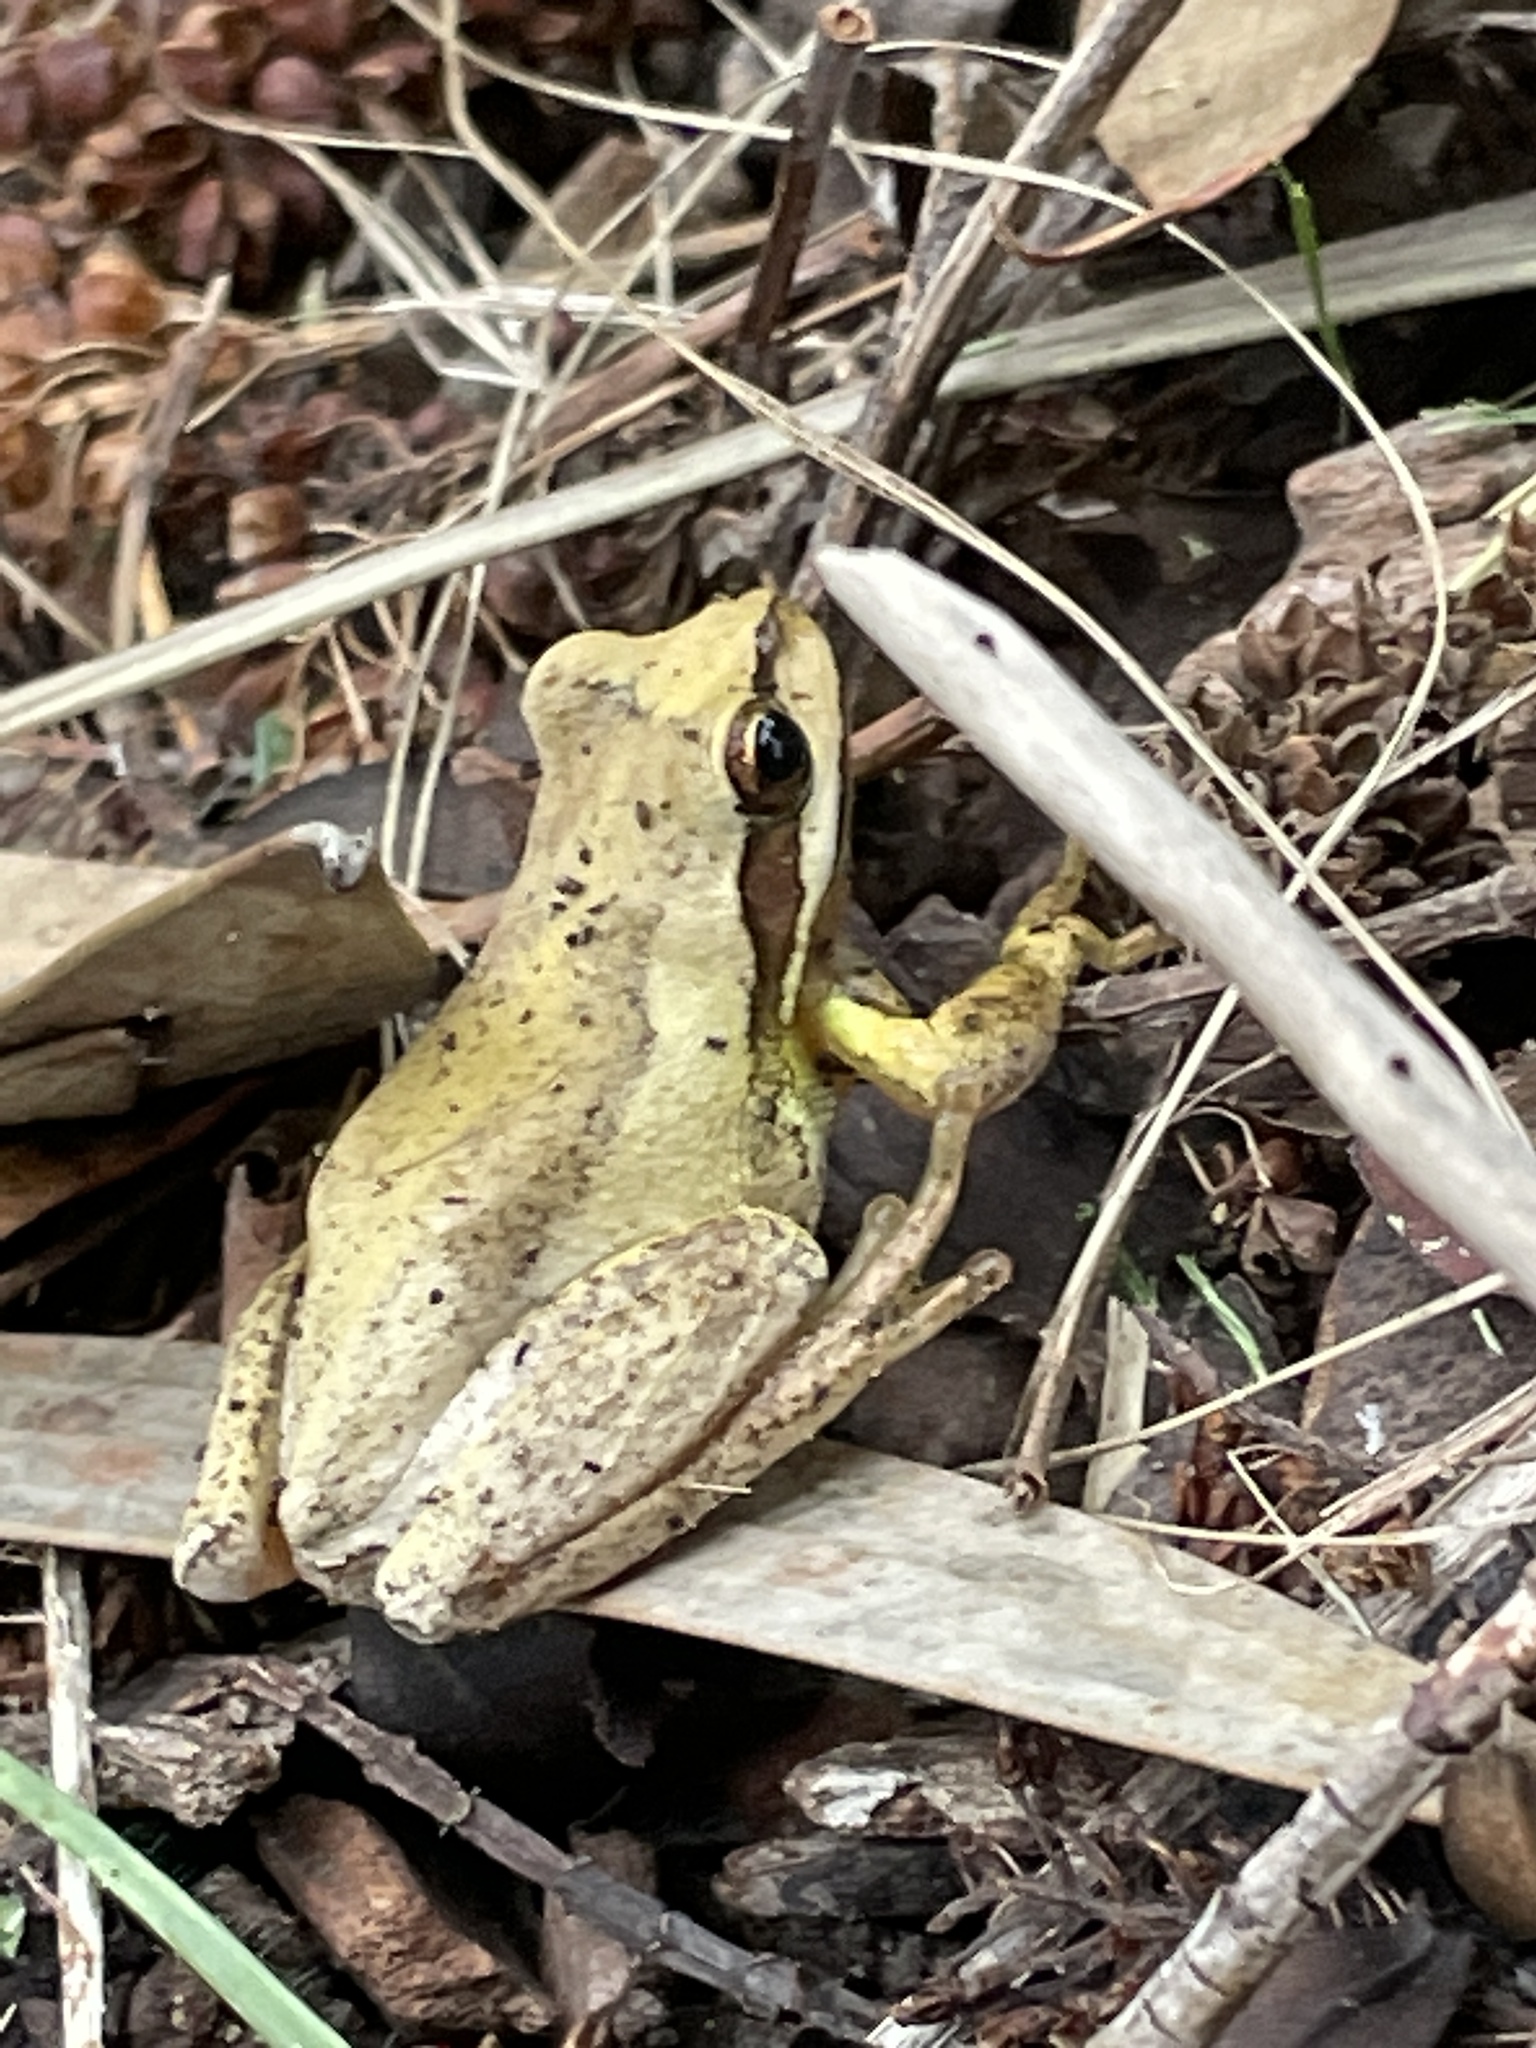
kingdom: Animalia
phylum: Chordata
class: Amphibia
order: Anura
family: Pelodryadidae
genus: Litoria
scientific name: Litoria ewingii
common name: Southern brown tree frog
